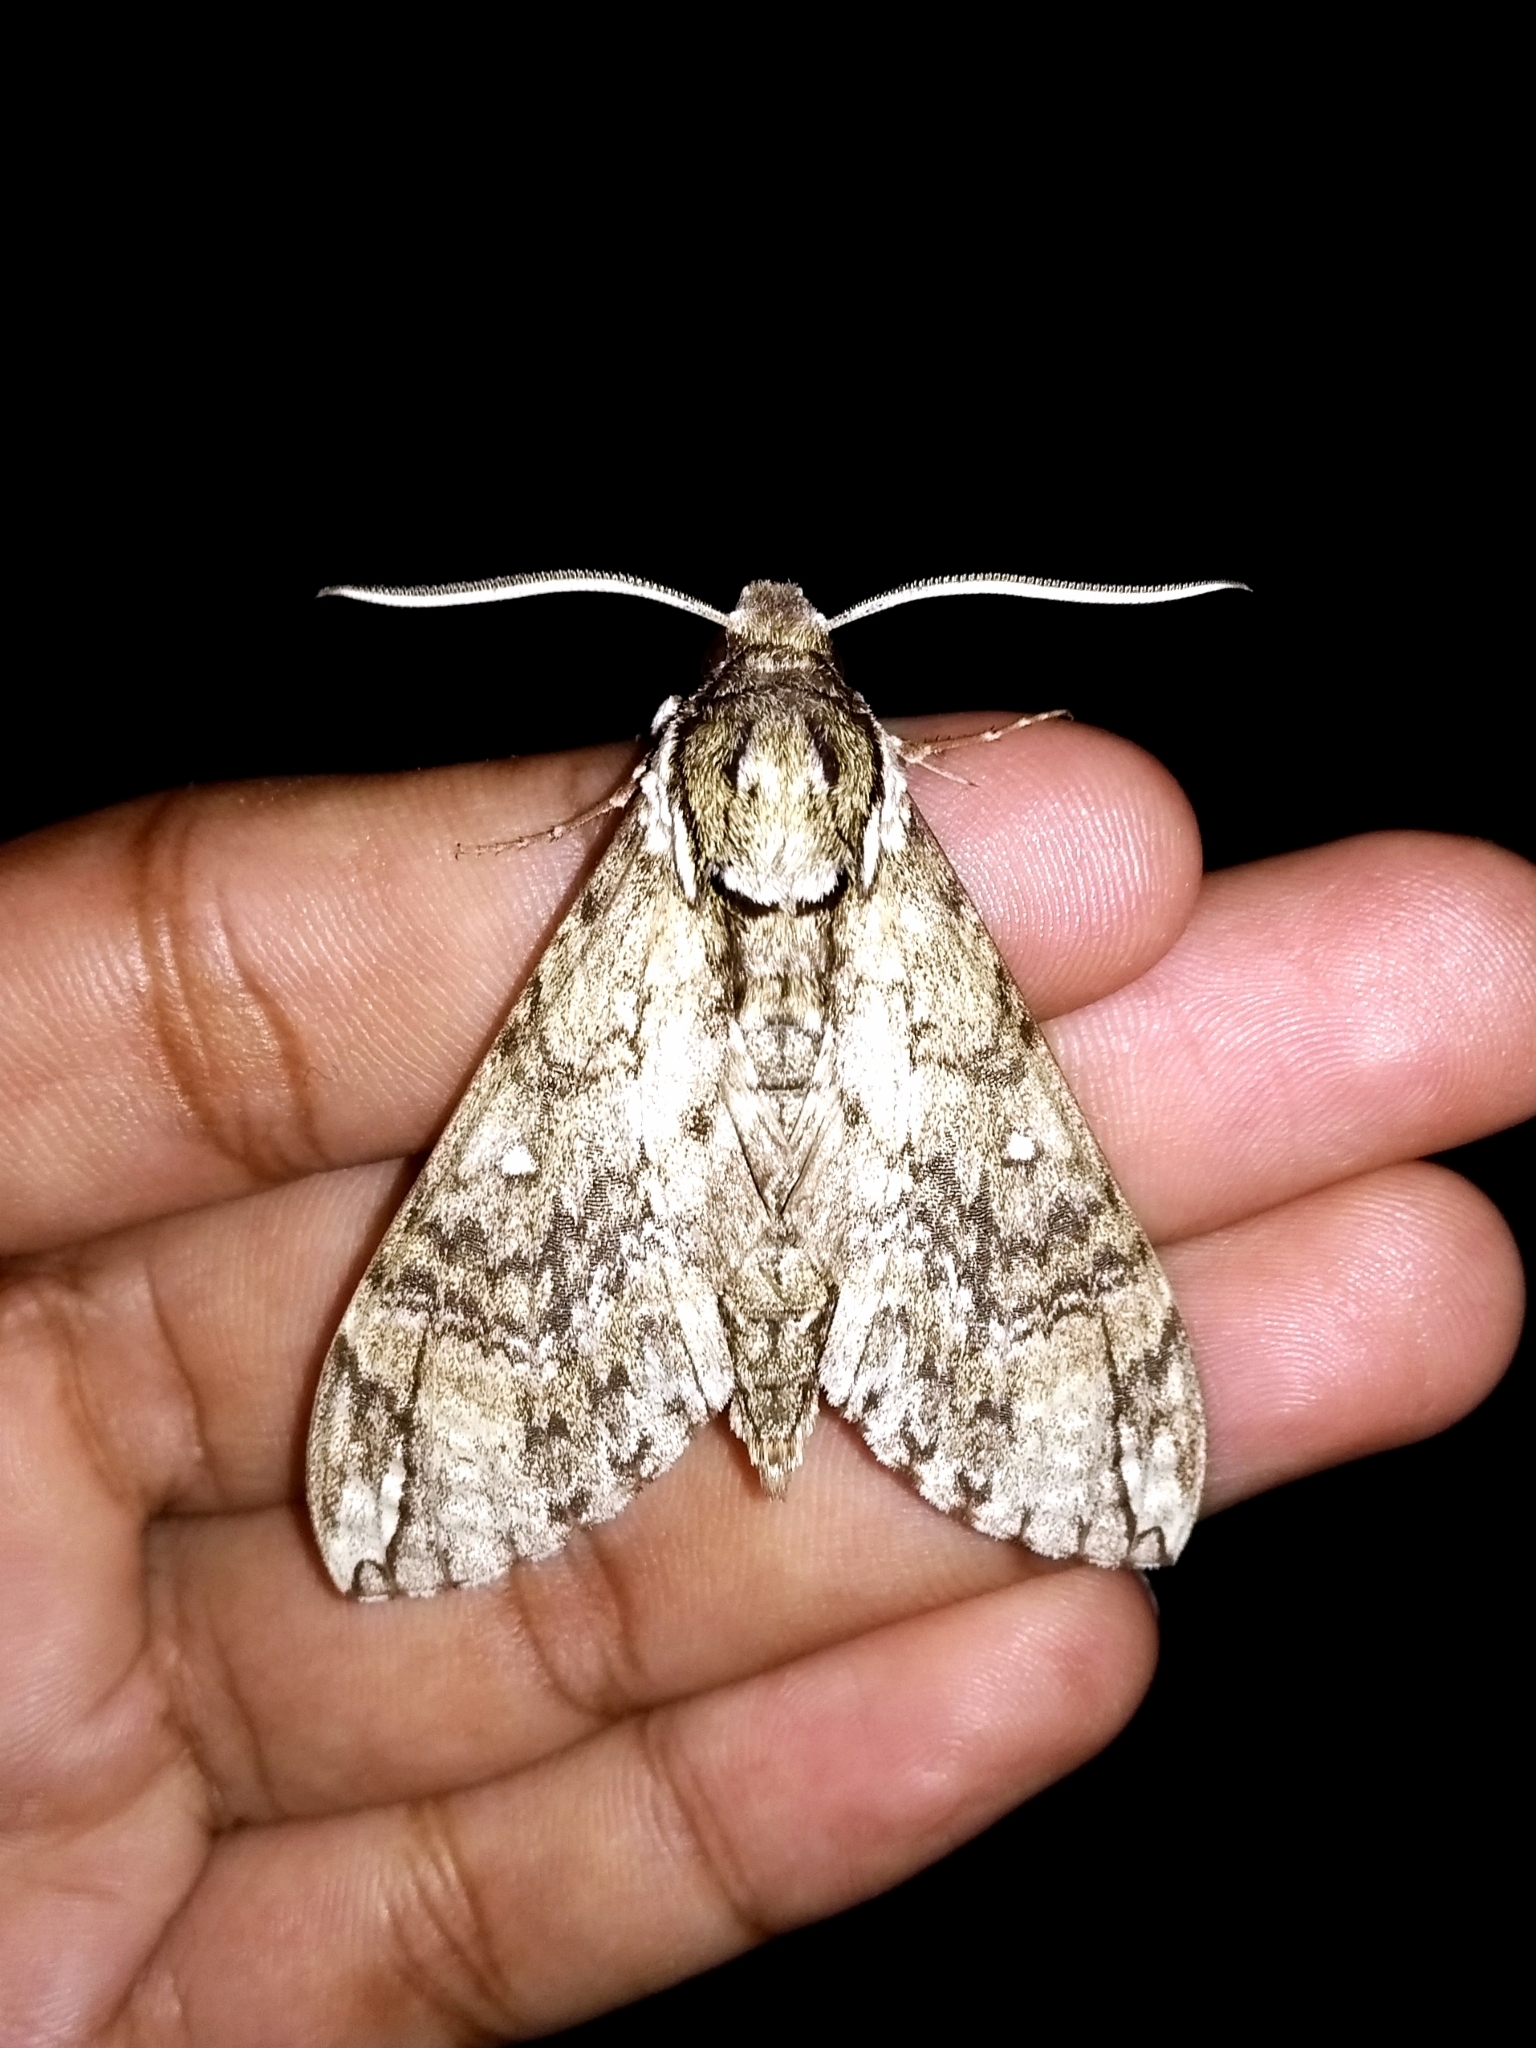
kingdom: Animalia
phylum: Arthropoda
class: Insecta
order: Lepidoptera
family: Sphingidae
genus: Manduca
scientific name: Manduca dilucida
